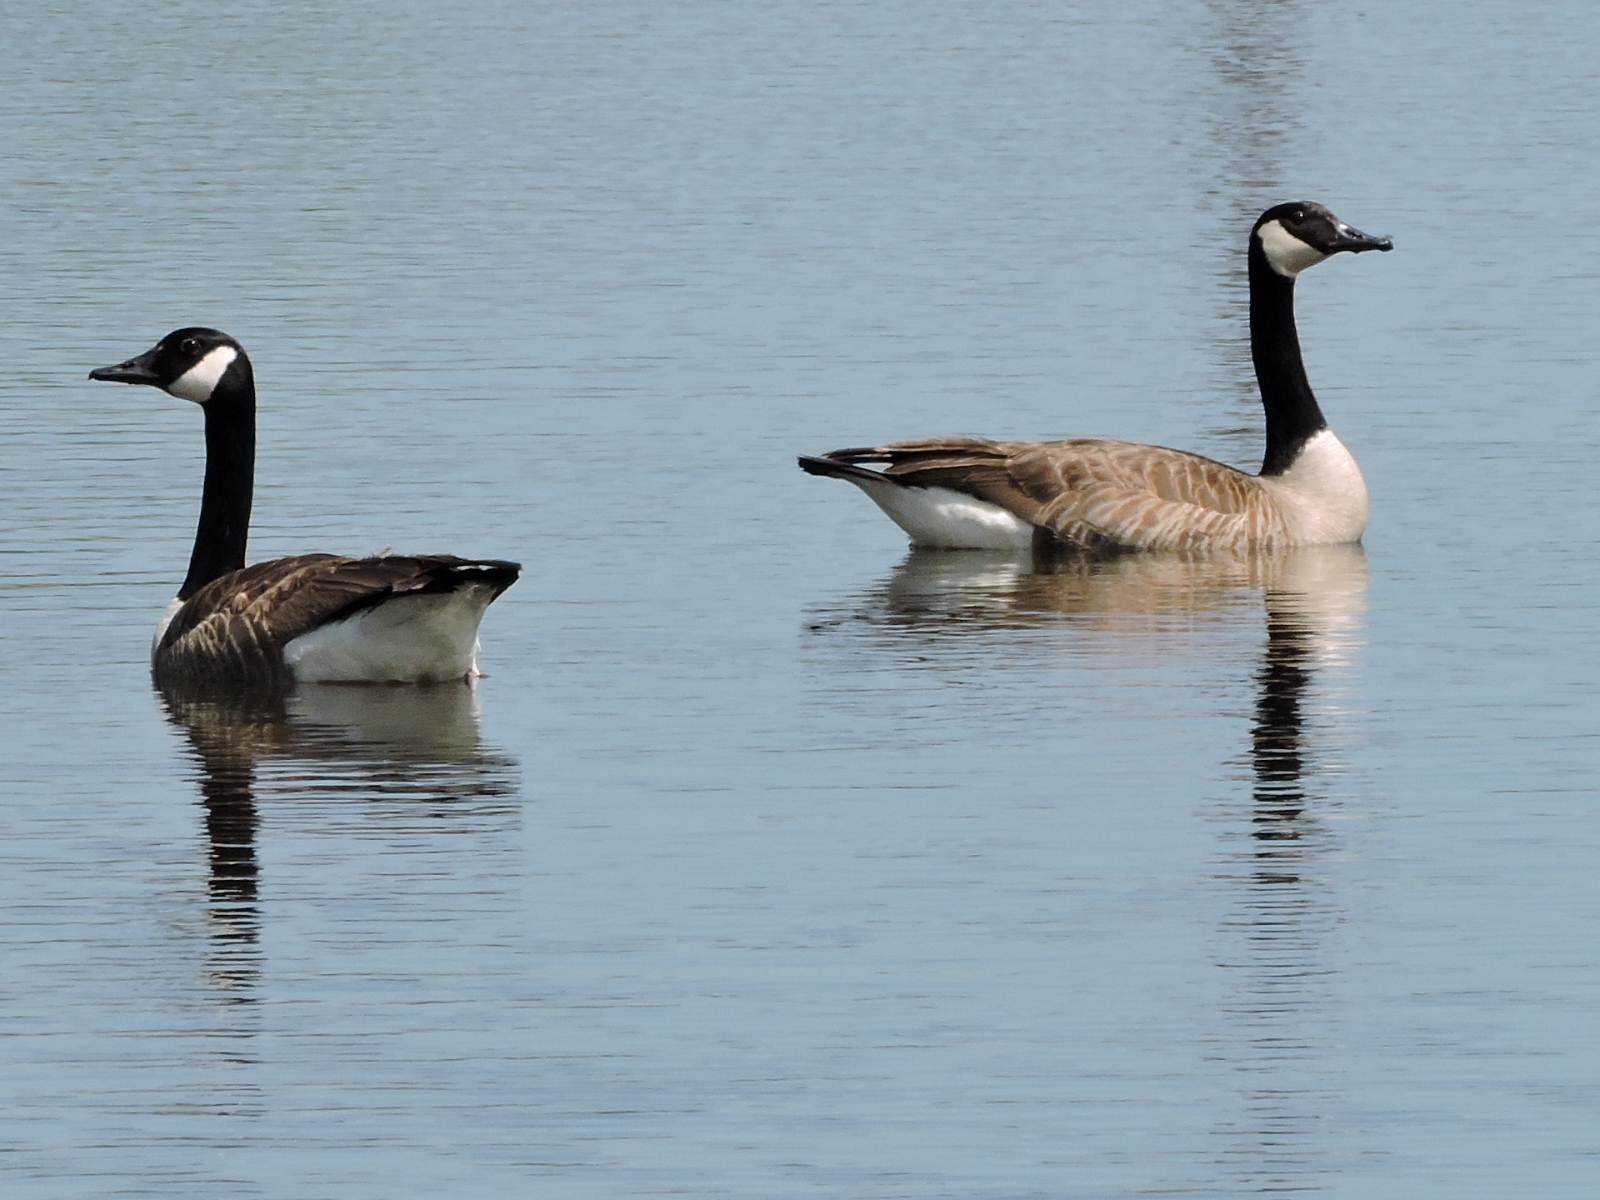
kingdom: Animalia
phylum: Chordata
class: Aves
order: Anseriformes
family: Anatidae
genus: Branta
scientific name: Branta canadensis
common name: Canada goose
